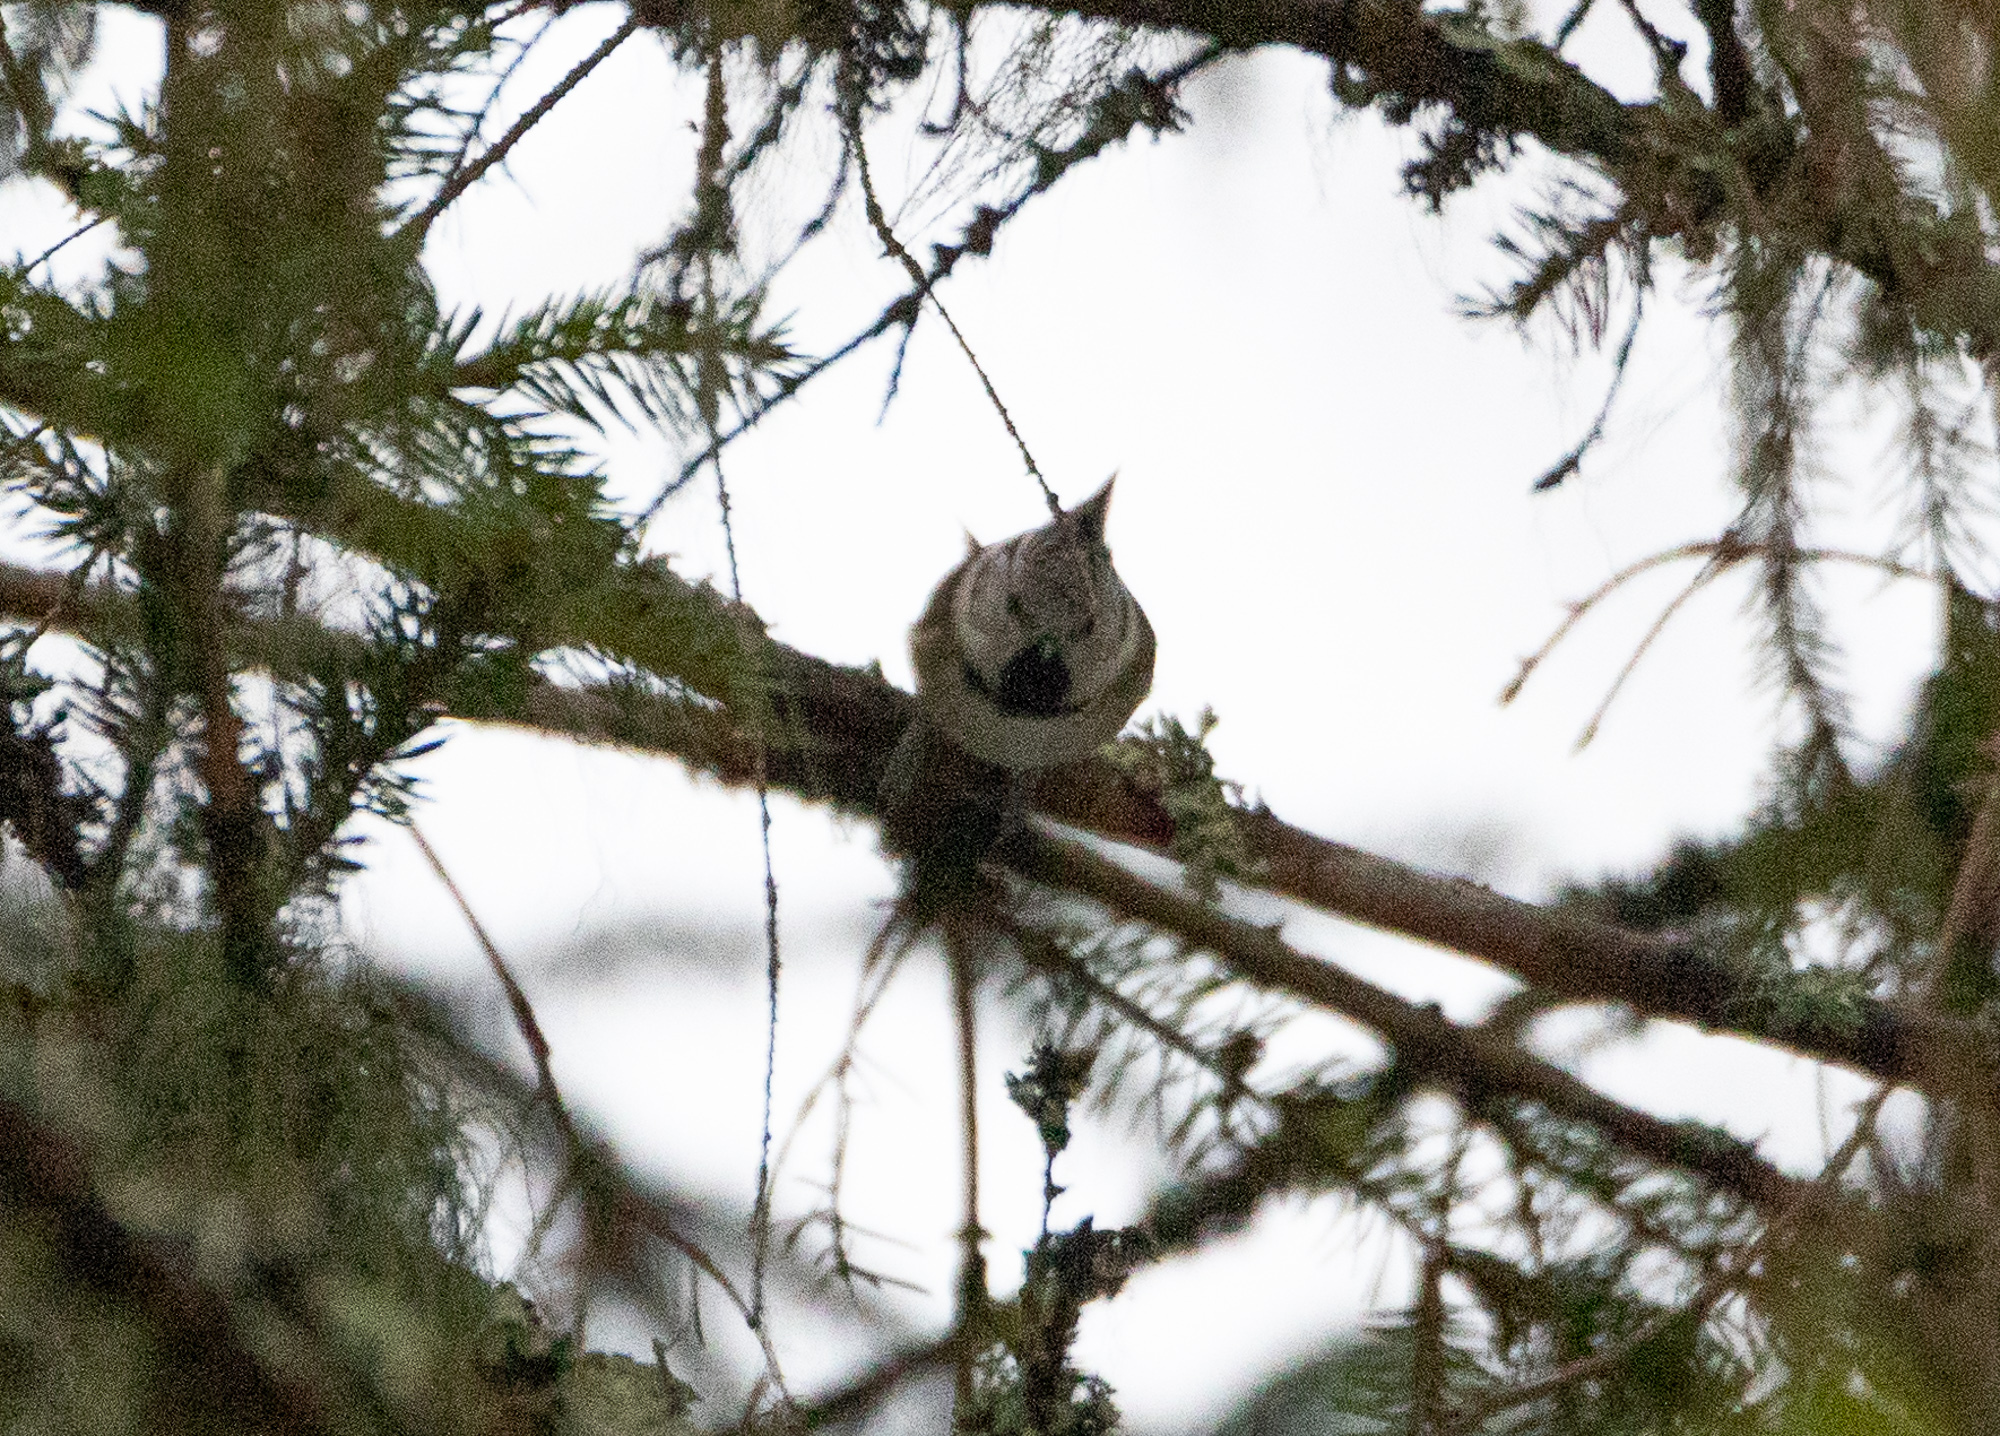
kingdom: Animalia
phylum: Chordata
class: Aves
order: Passeriformes
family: Paridae
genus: Lophophanes
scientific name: Lophophanes cristatus
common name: European crested tit
